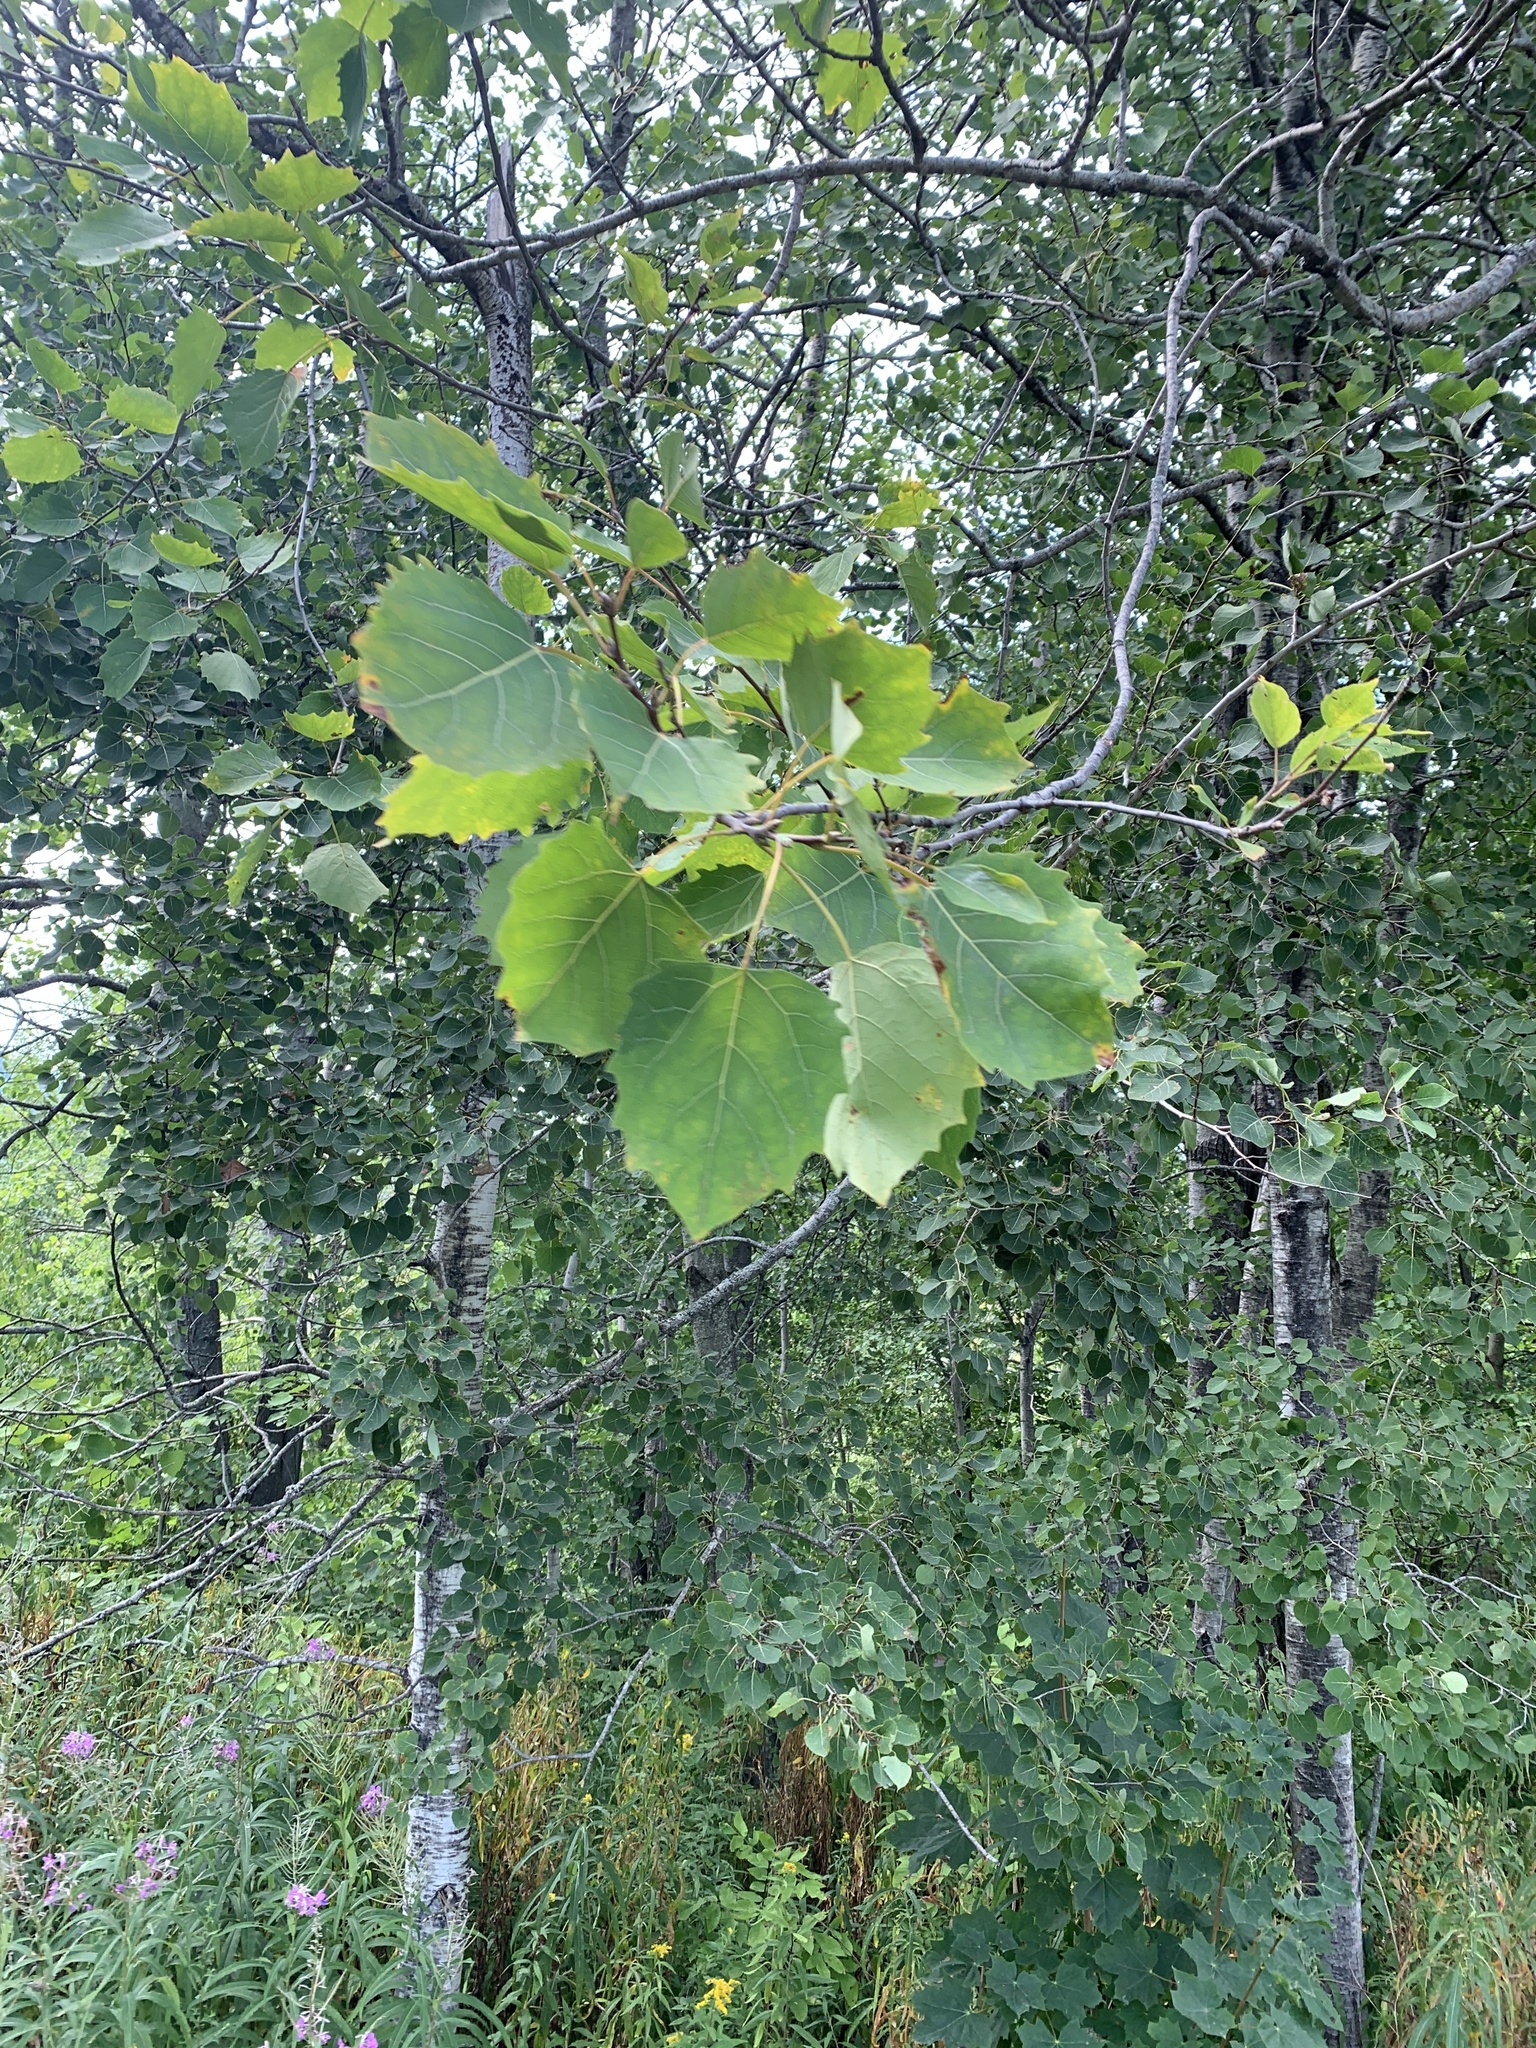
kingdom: Plantae
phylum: Tracheophyta
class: Magnoliopsida
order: Malpighiales
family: Salicaceae
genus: Populus
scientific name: Populus grandidentata
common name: Bigtooth aspen
